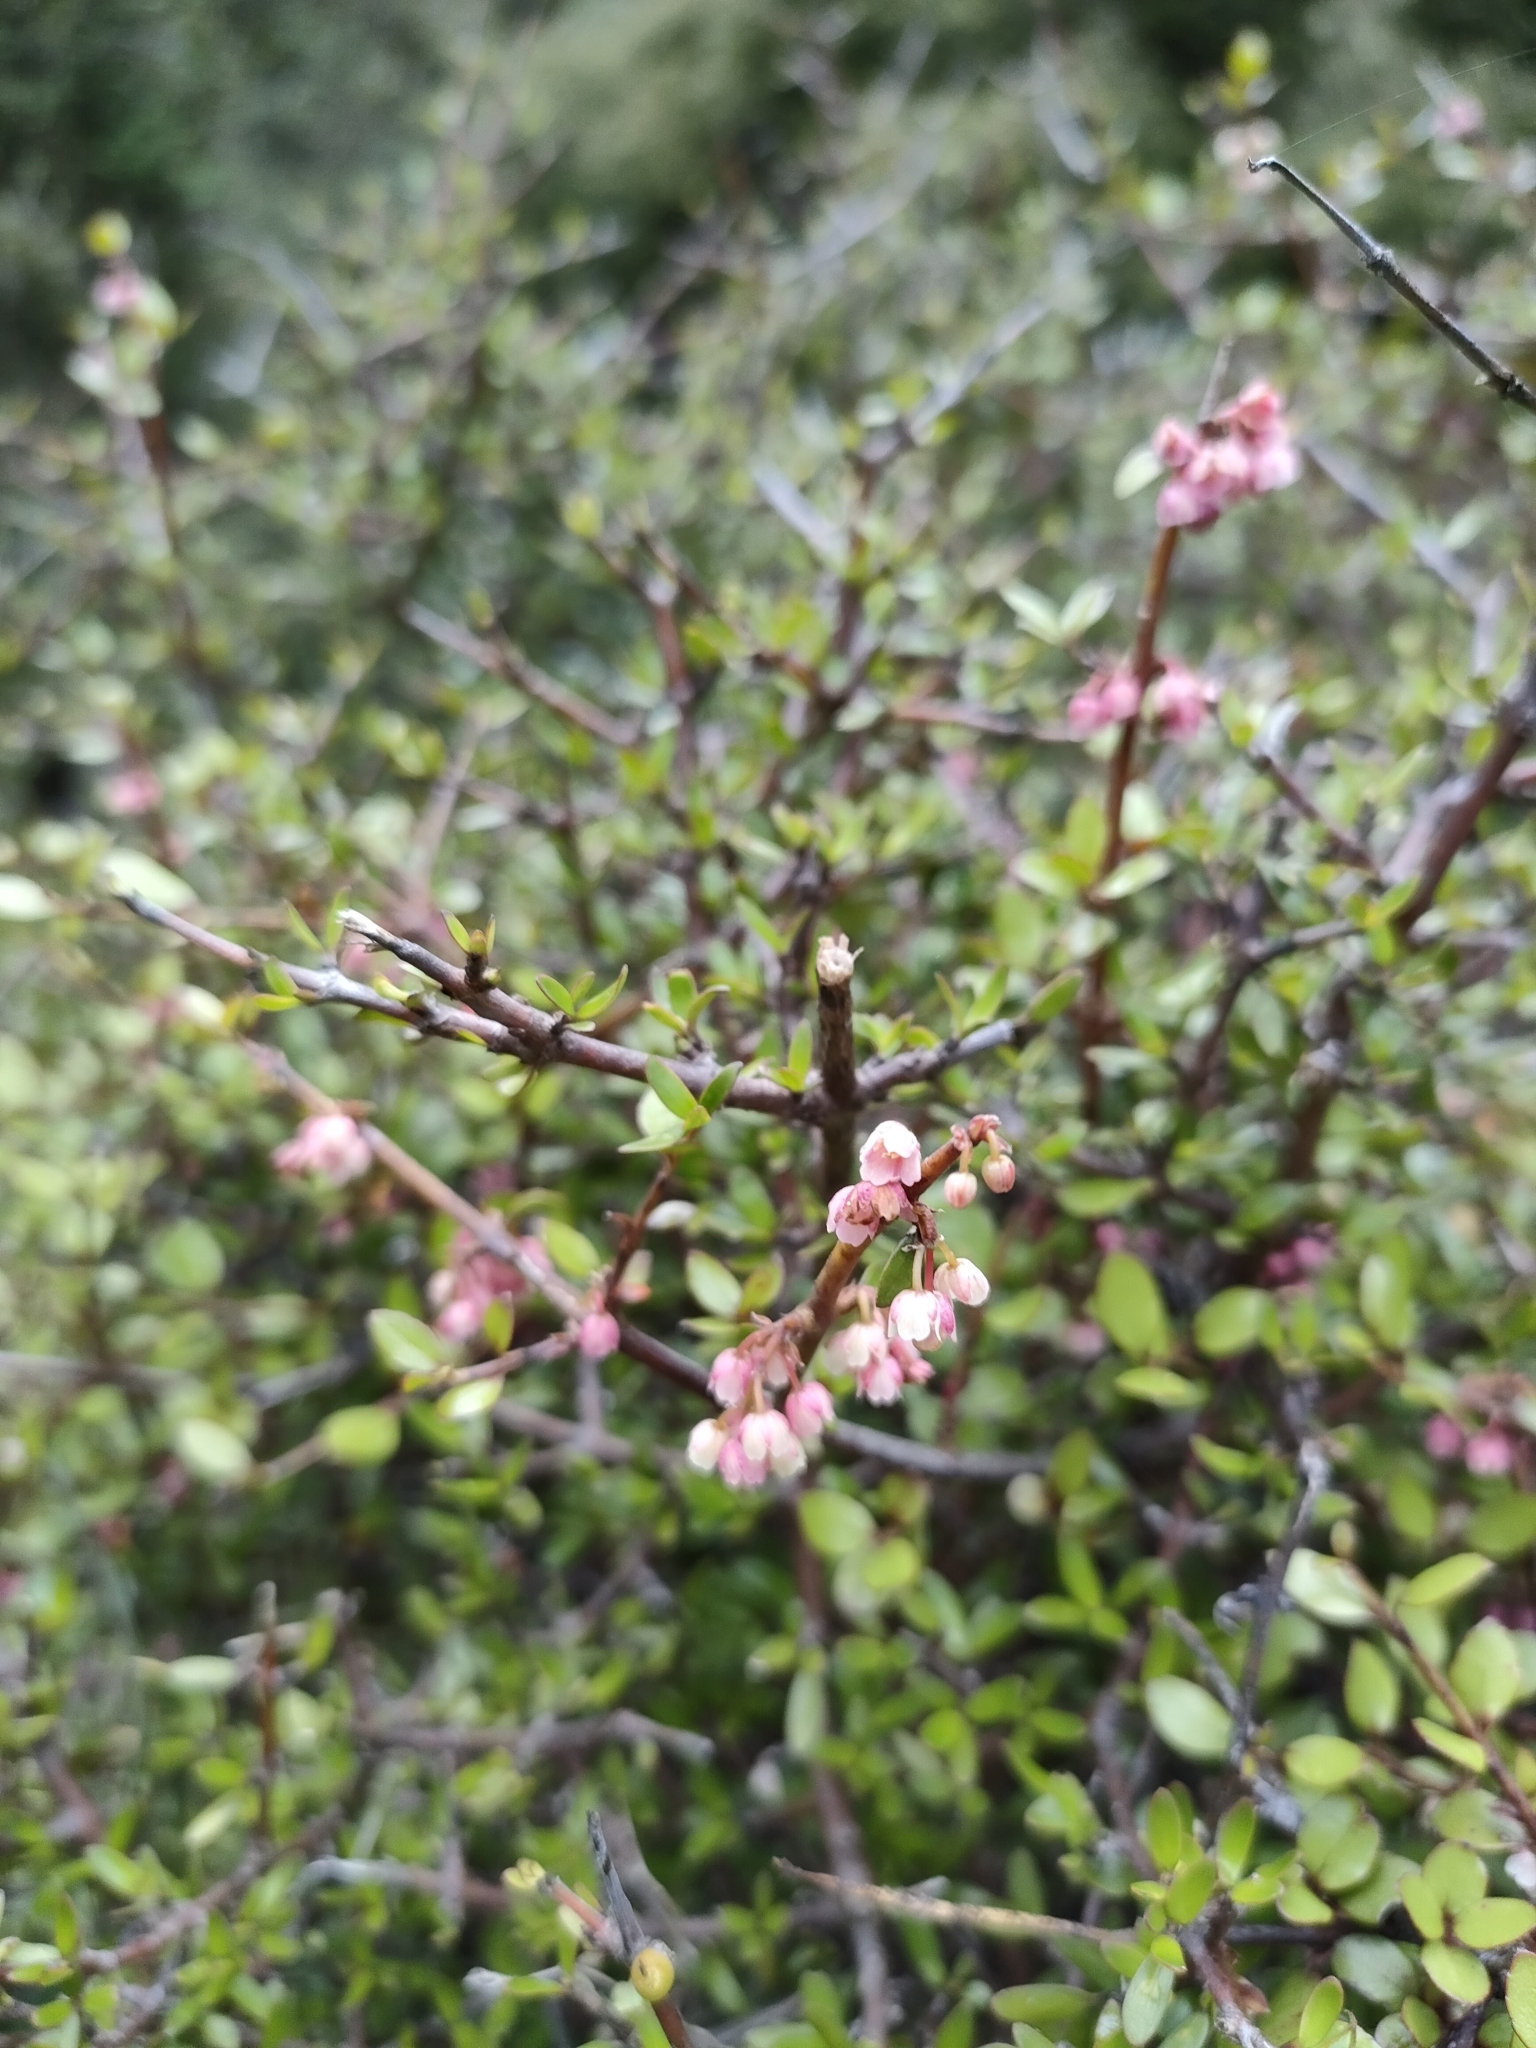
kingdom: Plantae
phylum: Tracheophyta
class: Magnoliopsida
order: Oxalidales
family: Elaeocarpaceae
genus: Aristotelia
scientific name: Aristotelia fruticosa
